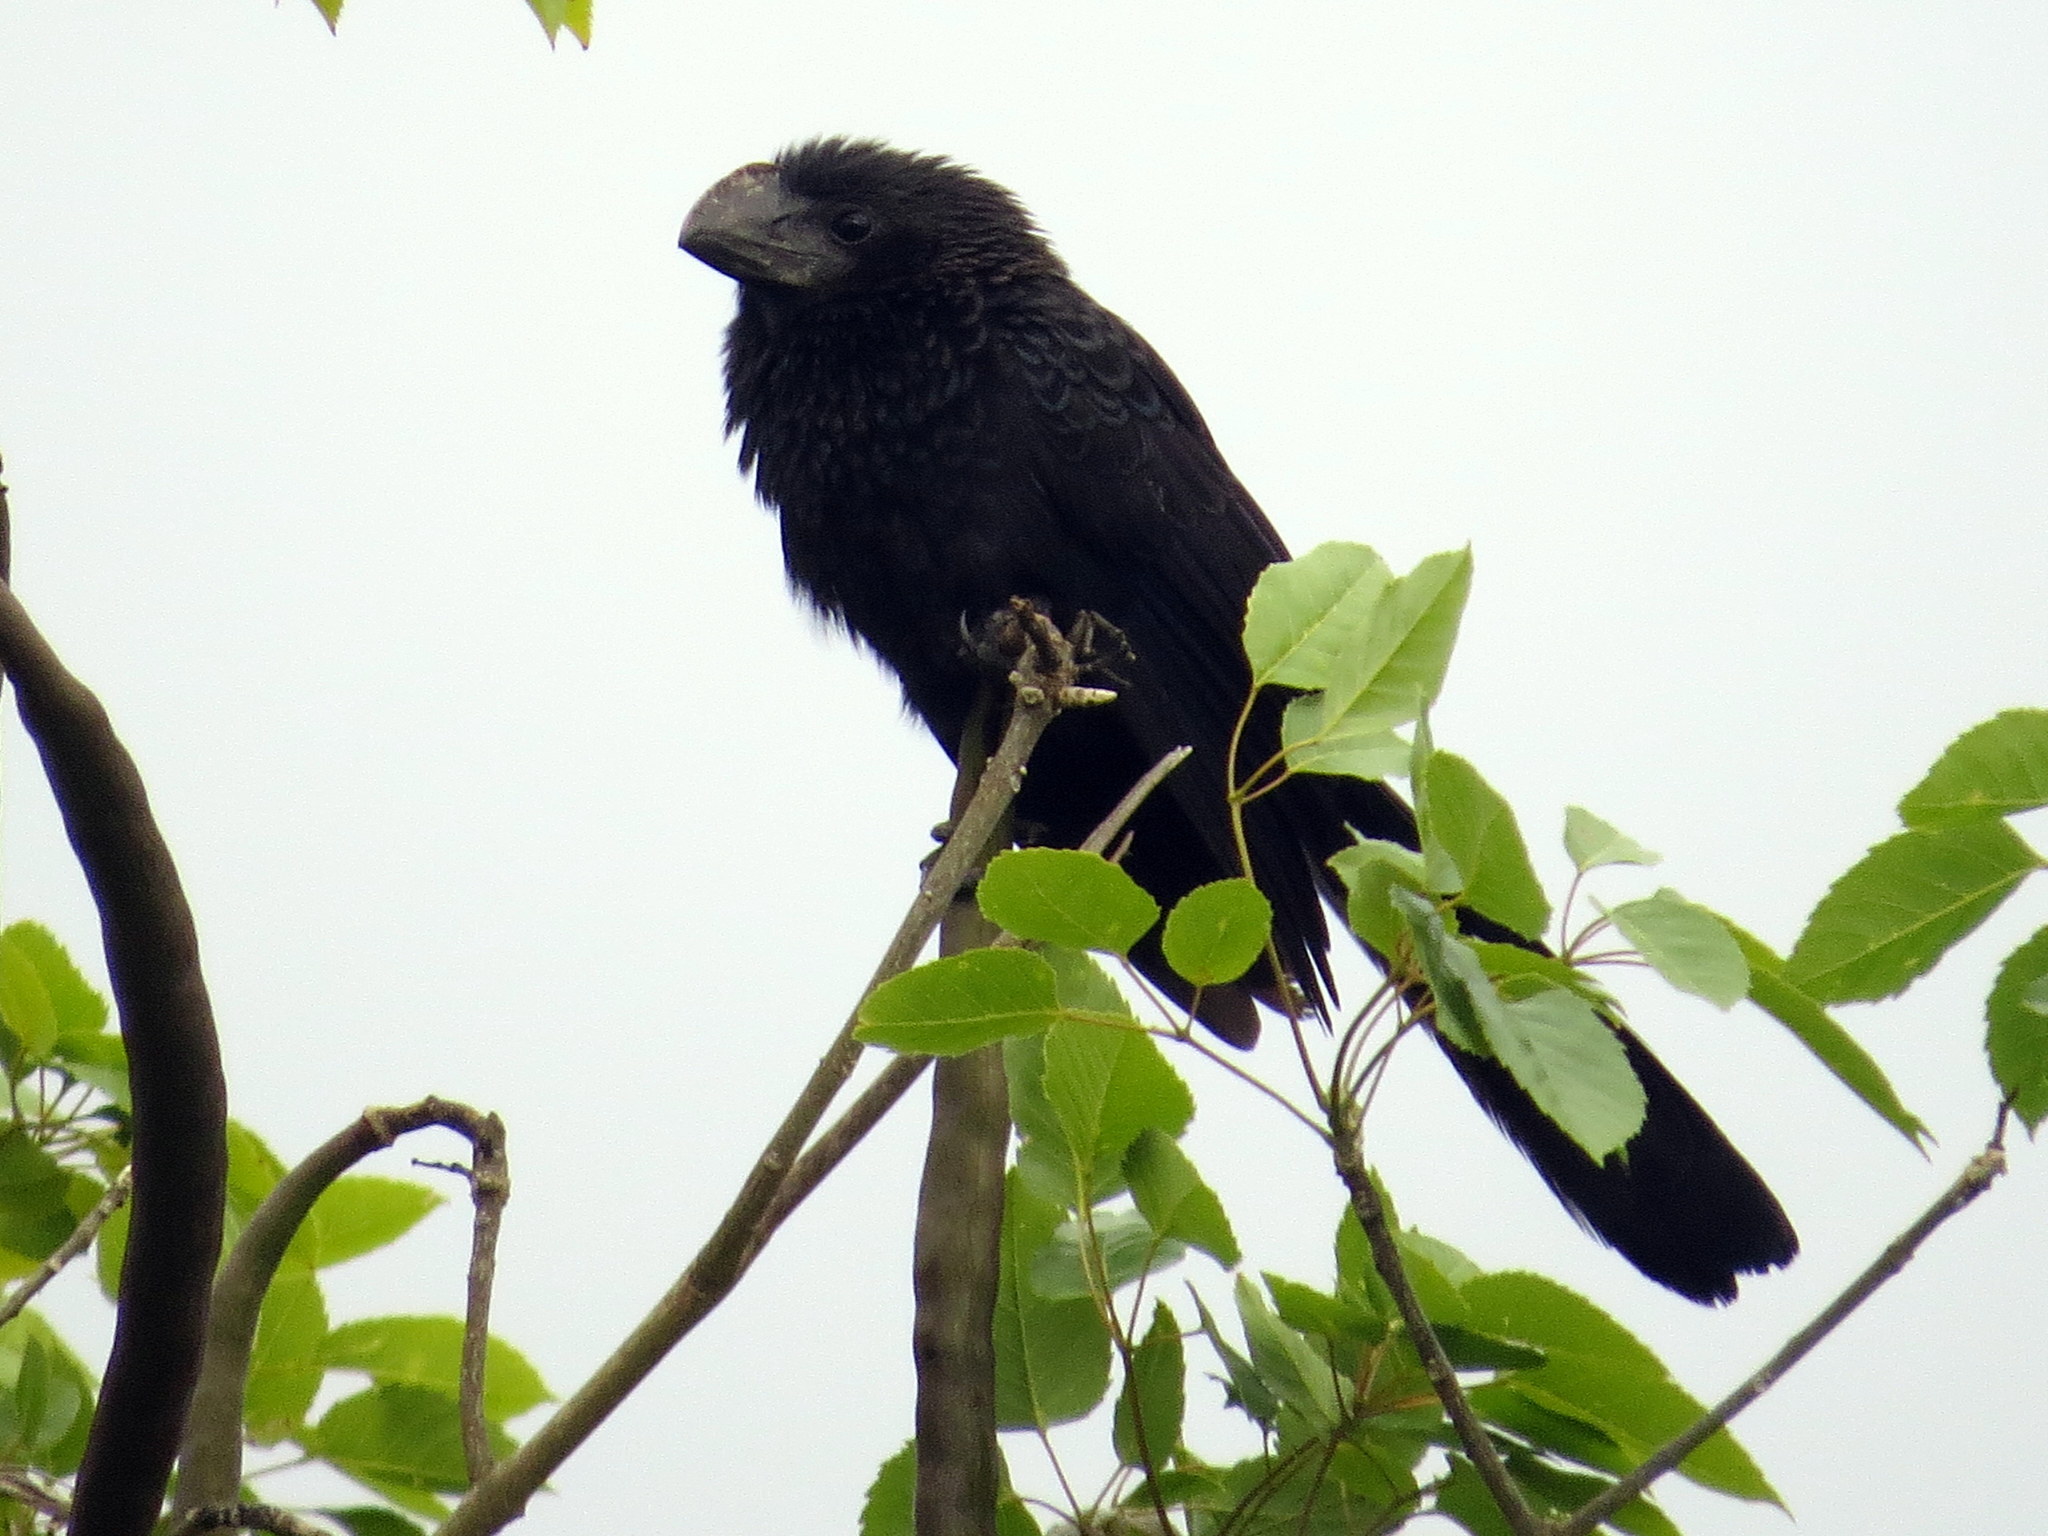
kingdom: Animalia
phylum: Chordata
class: Aves
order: Cuculiformes
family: Cuculidae
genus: Crotophaga
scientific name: Crotophaga ani
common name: Smooth-billed ani
